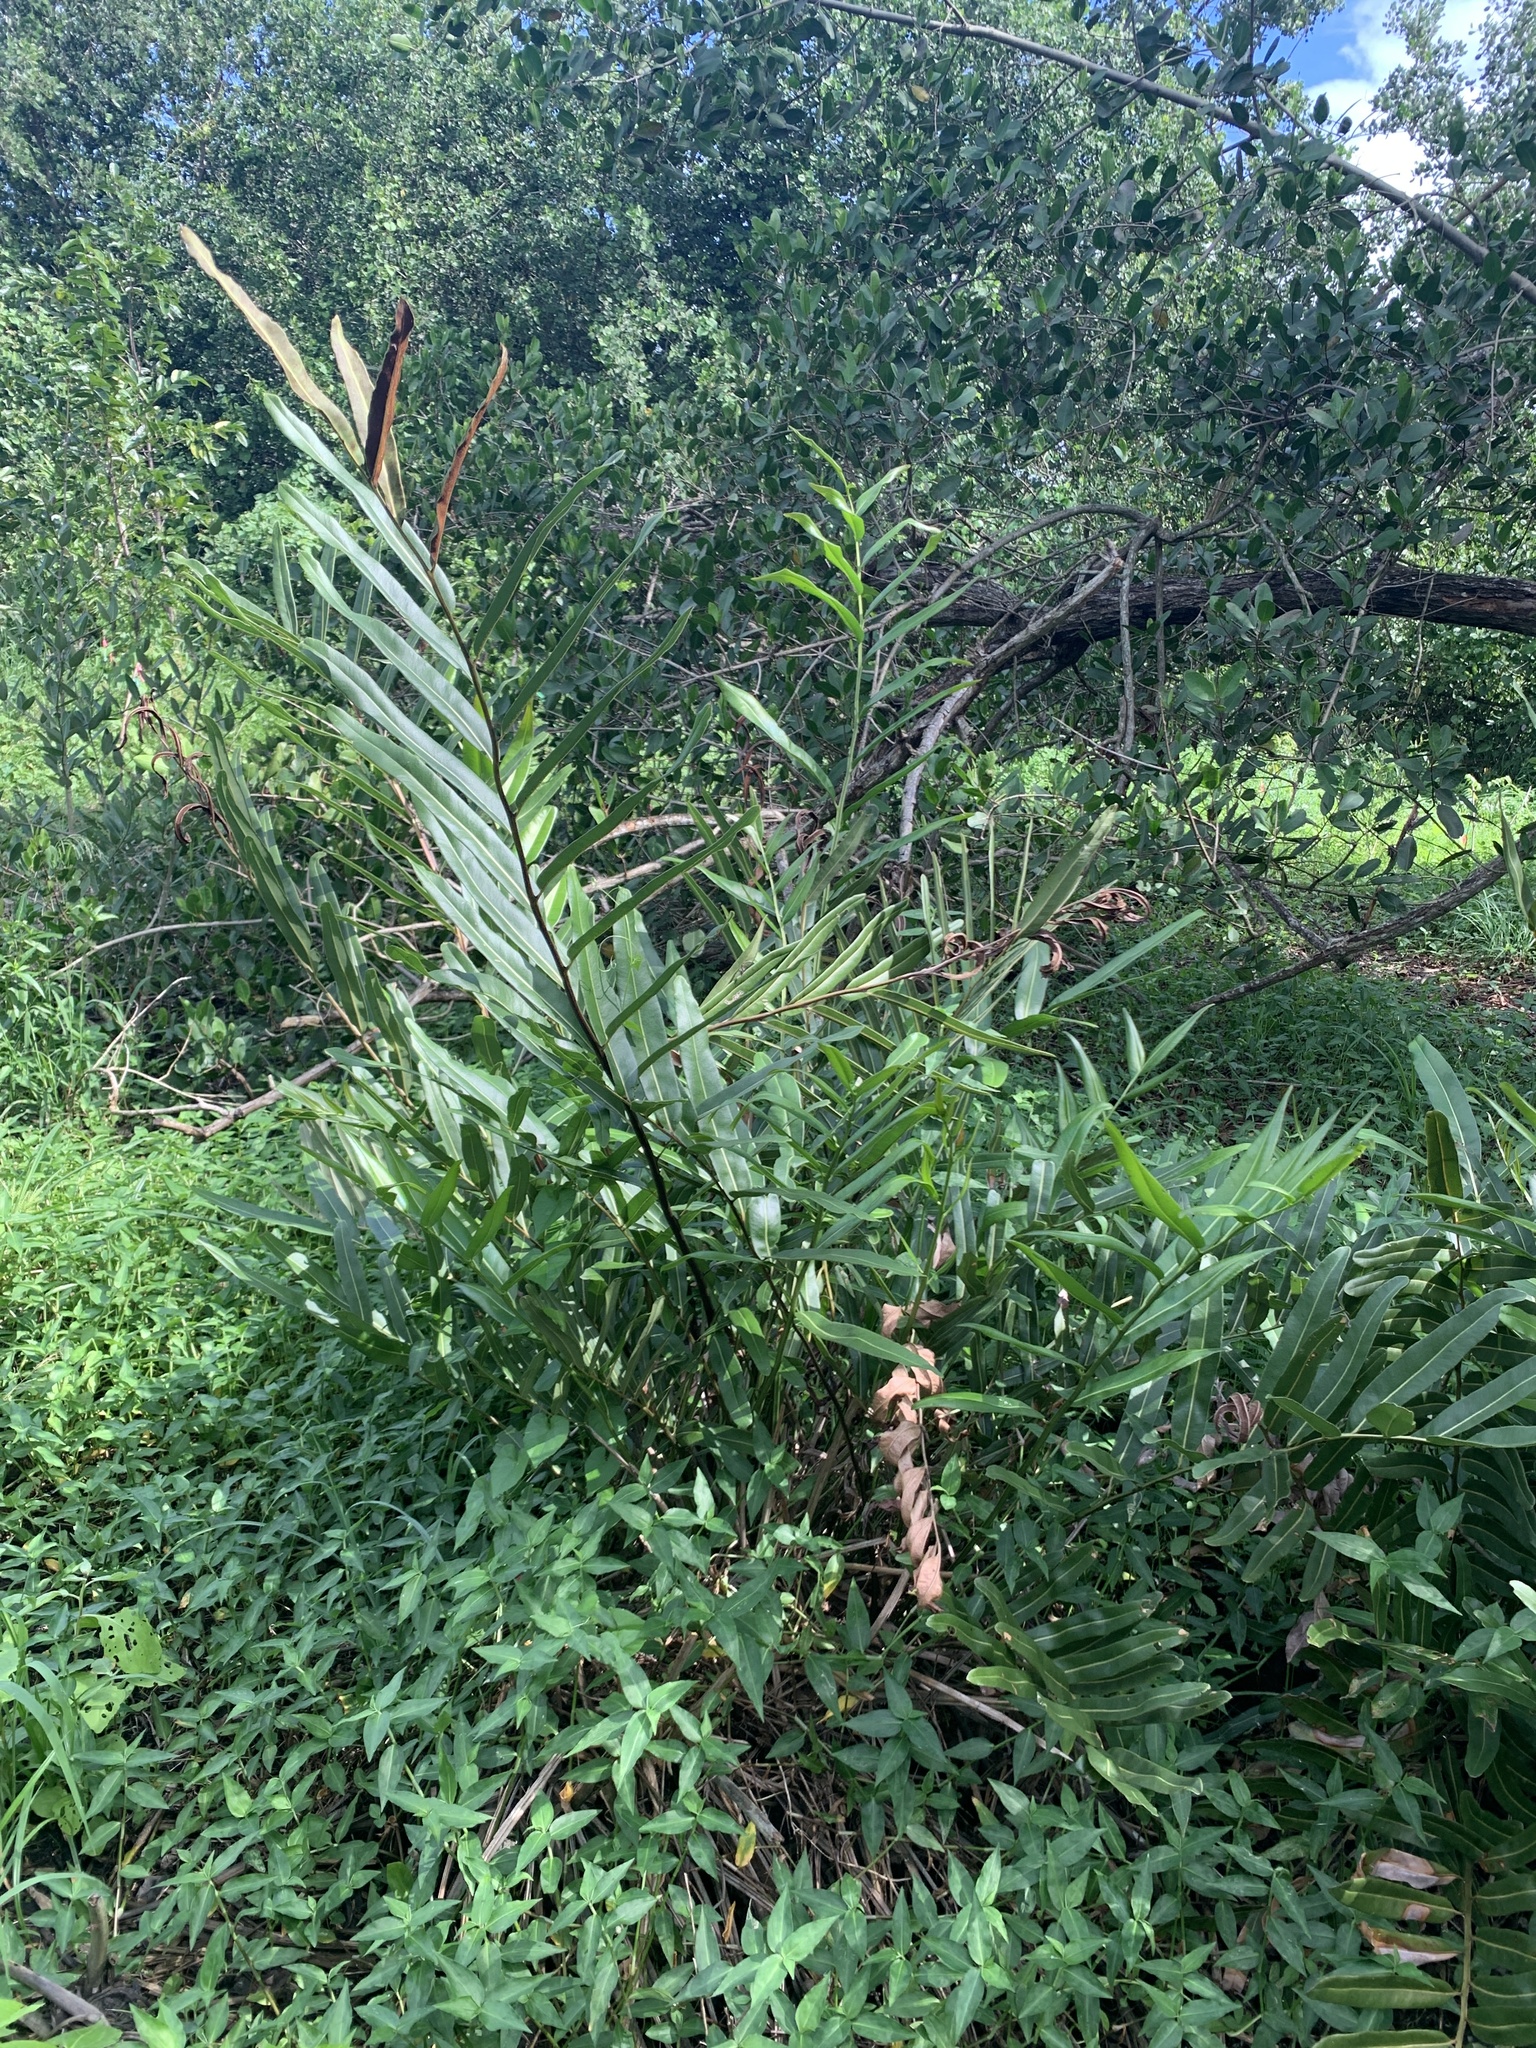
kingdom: Plantae
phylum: Tracheophyta
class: Polypodiopsida
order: Polypodiales
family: Pteridaceae
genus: Acrostichum
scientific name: Acrostichum aureum
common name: Leather fern
